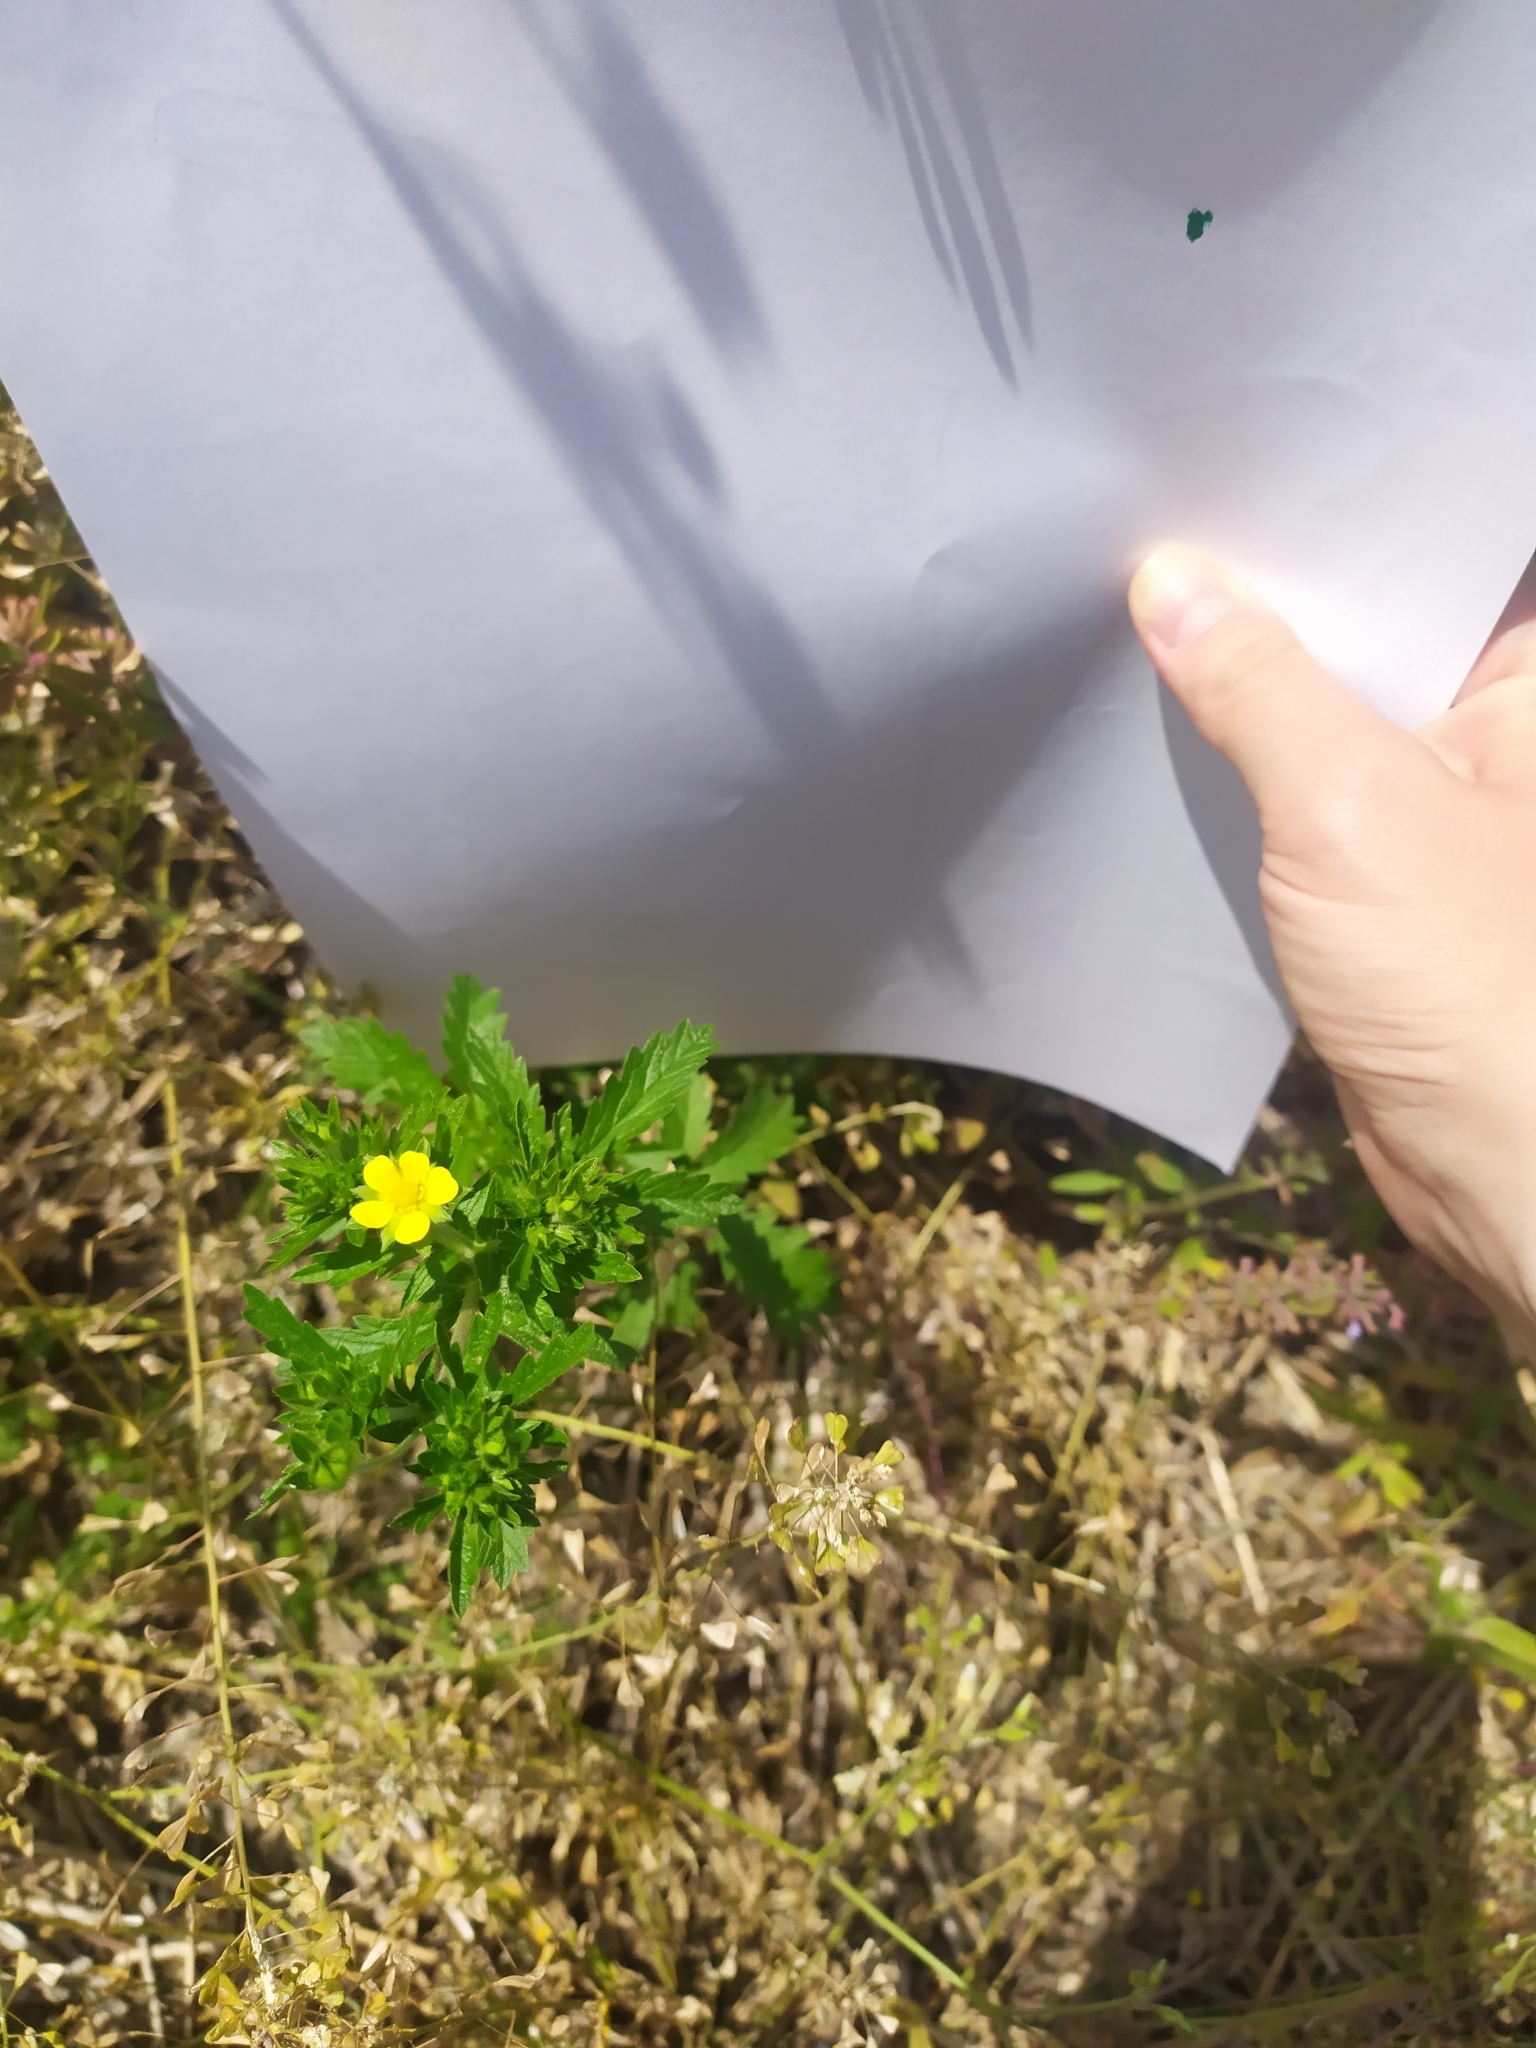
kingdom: Plantae
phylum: Tracheophyta
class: Magnoliopsida
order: Rosales
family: Rosaceae
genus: Potentilla
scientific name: Potentilla norvegica
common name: Ternate-leaved cinquefoil
